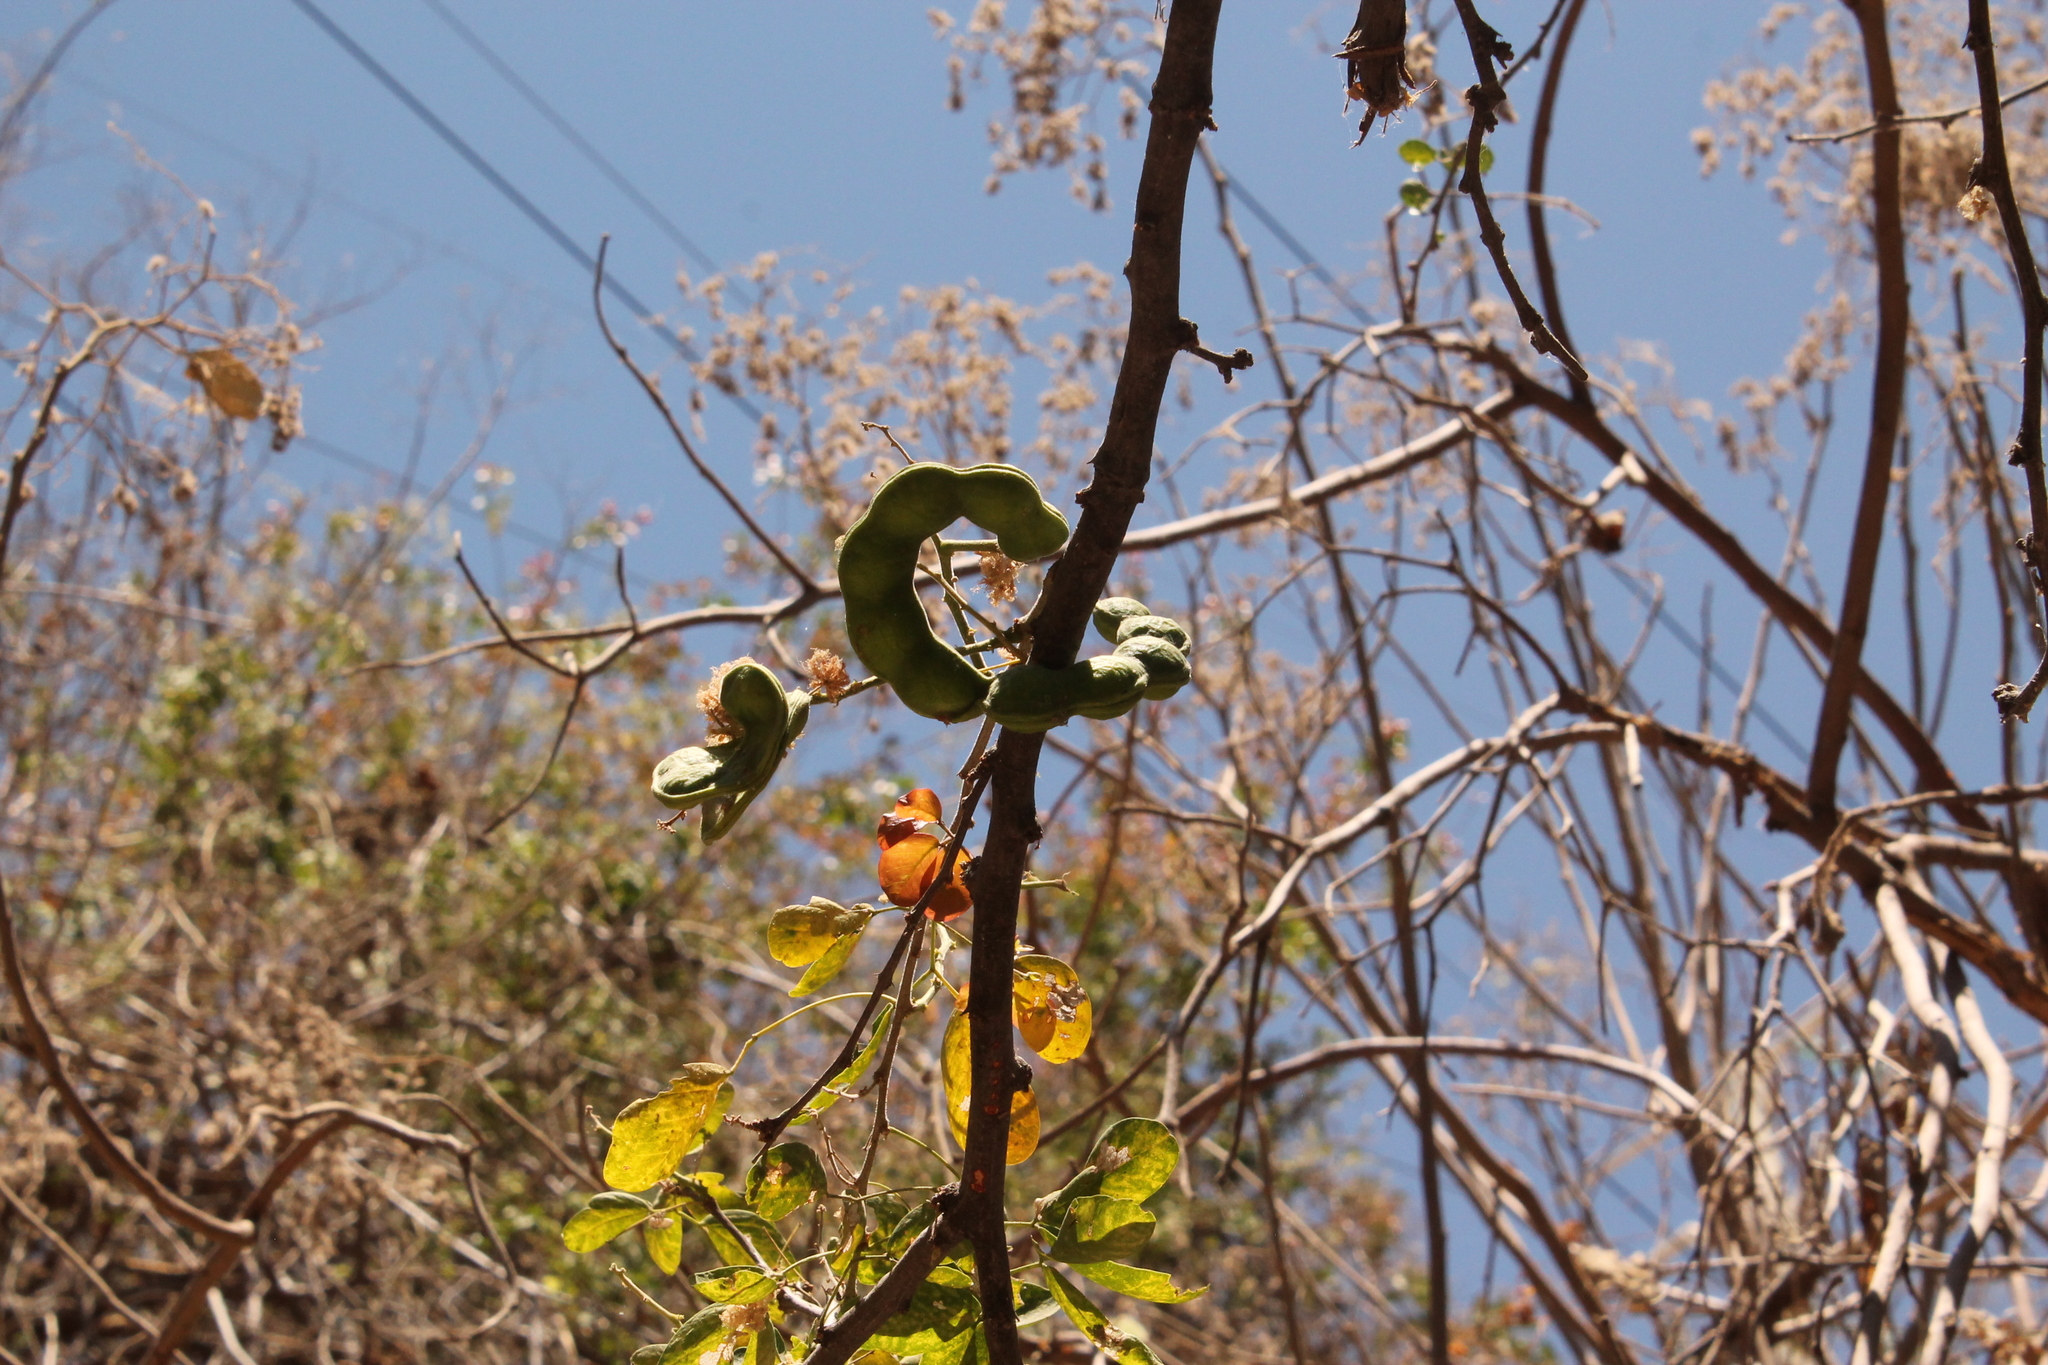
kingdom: Plantae
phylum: Tracheophyta
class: Magnoliopsida
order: Fabales
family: Fabaceae
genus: Pithecellobium
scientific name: Pithecellobium dulce
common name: Monkeypod
